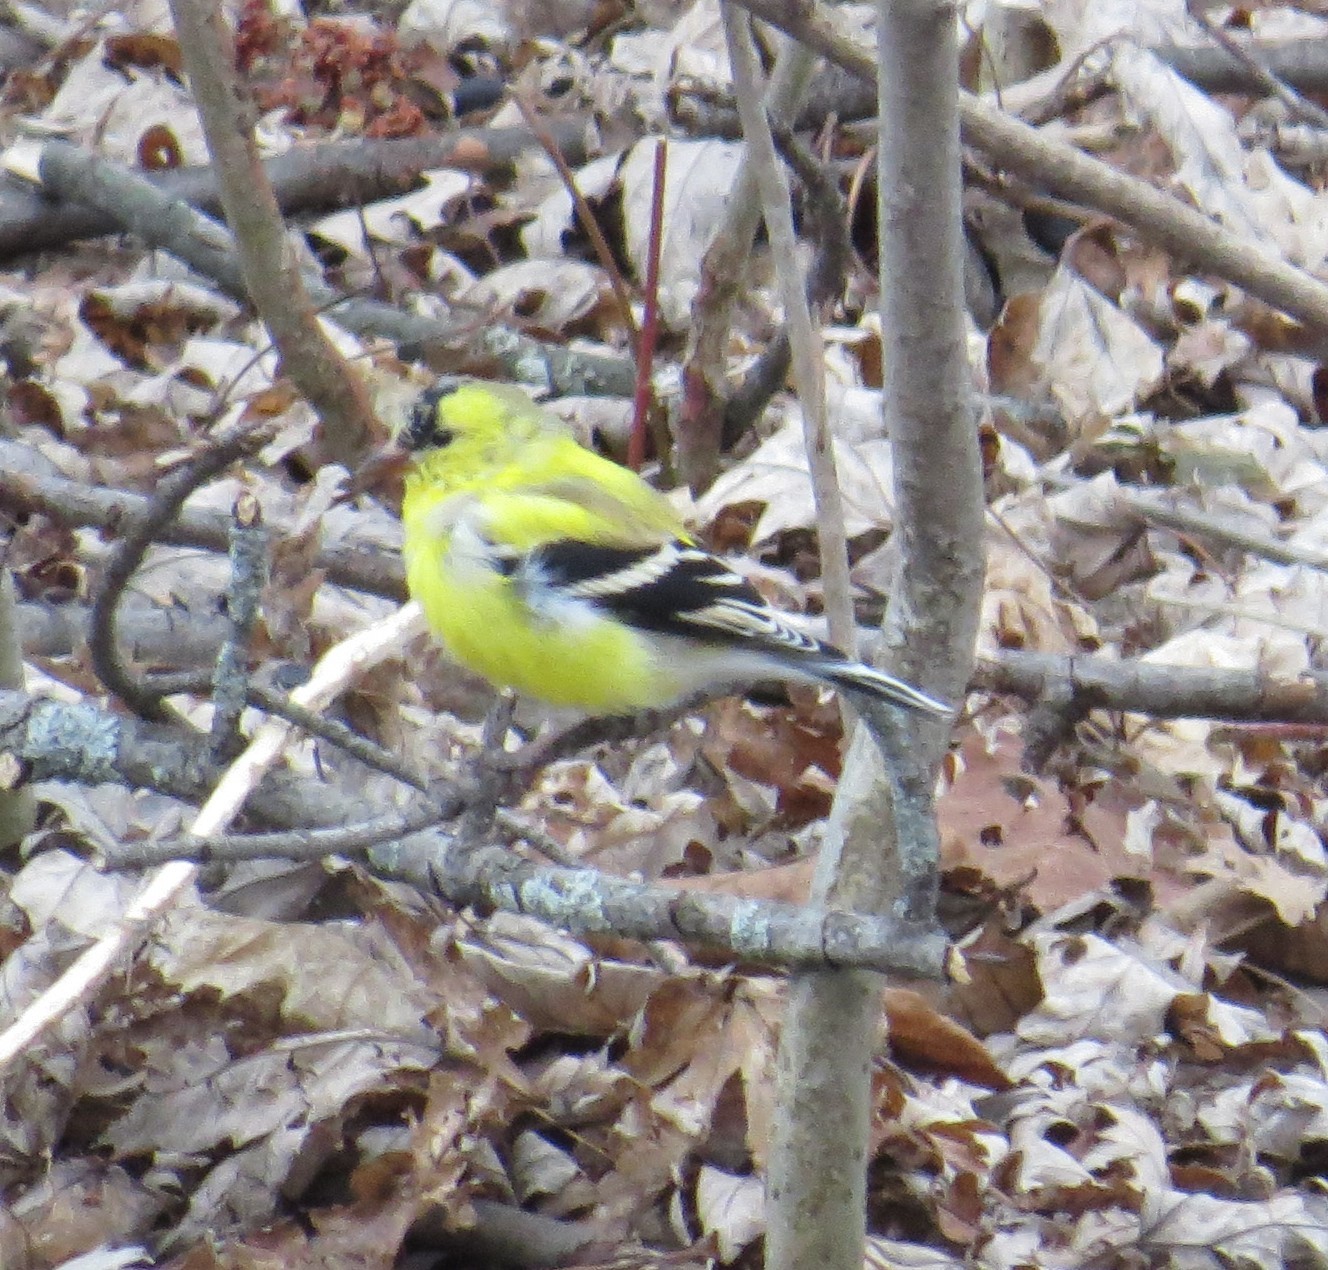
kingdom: Animalia
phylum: Chordata
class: Aves
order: Passeriformes
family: Fringillidae
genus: Spinus
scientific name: Spinus tristis
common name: American goldfinch
